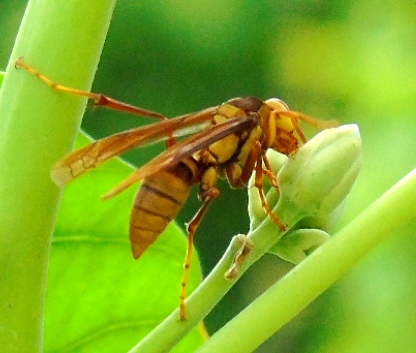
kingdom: Animalia
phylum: Arthropoda
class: Insecta
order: Hymenoptera
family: Eumenidae
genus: Polistes
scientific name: Polistes carnifex
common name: Paper wasp
